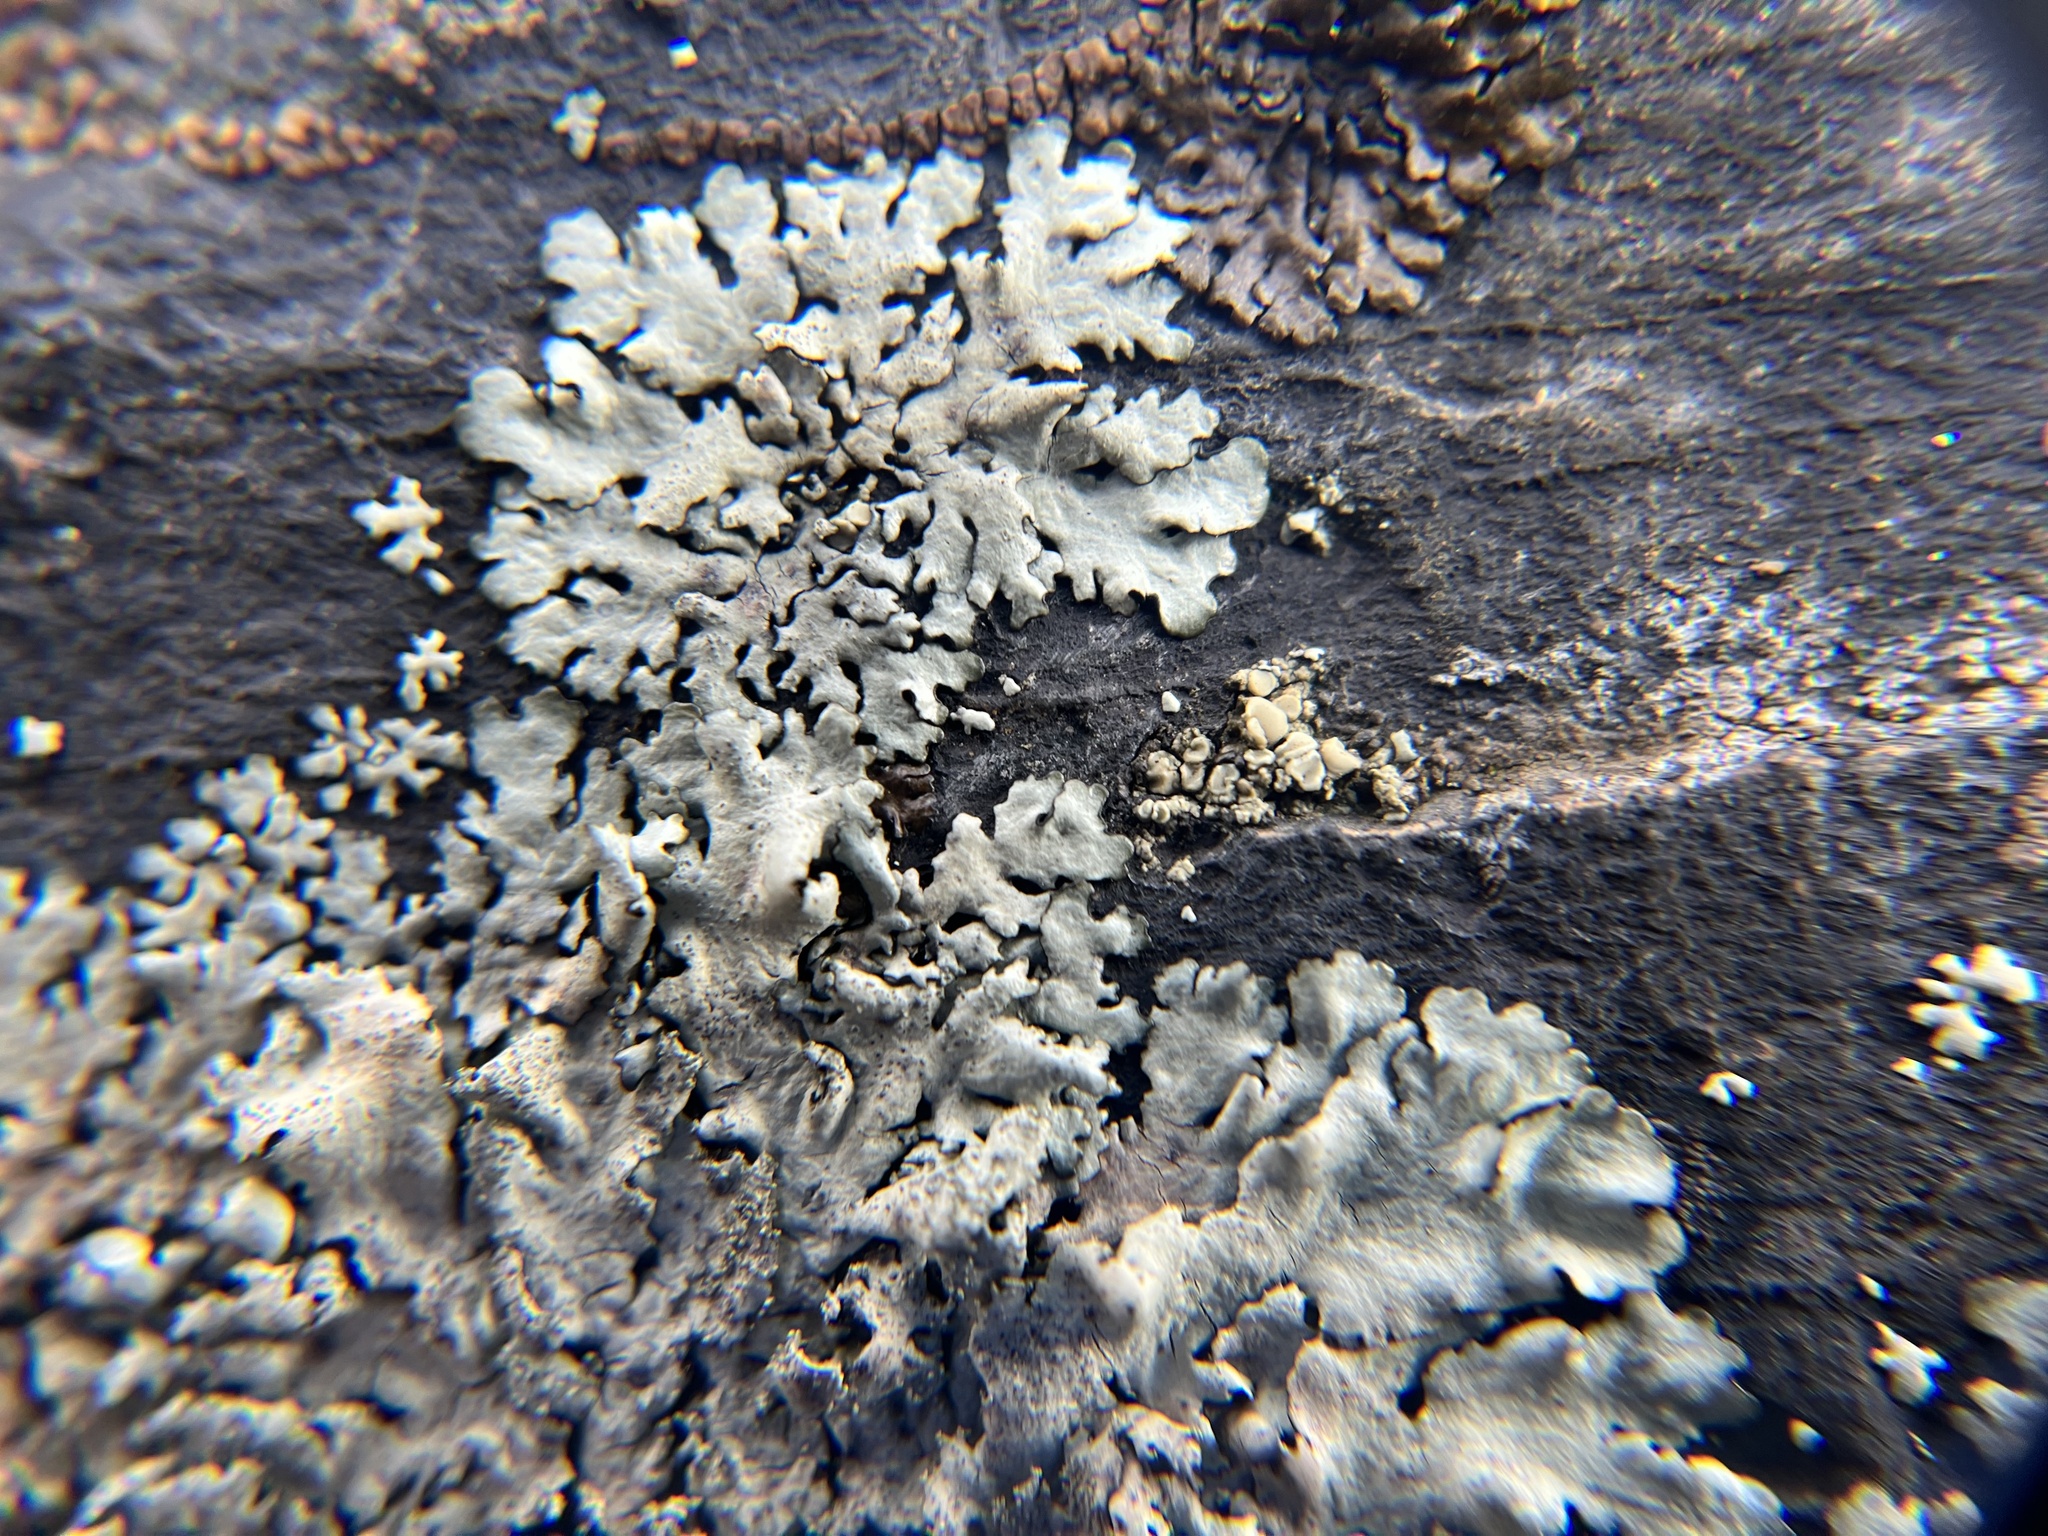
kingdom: Fungi
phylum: Ascomycota
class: Lecanoromycetes
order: Lecanorales
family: Parmeliaceae
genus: Xanthoparmelia
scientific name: Xanthoparmelia conspersa
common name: Peppered rock shield
